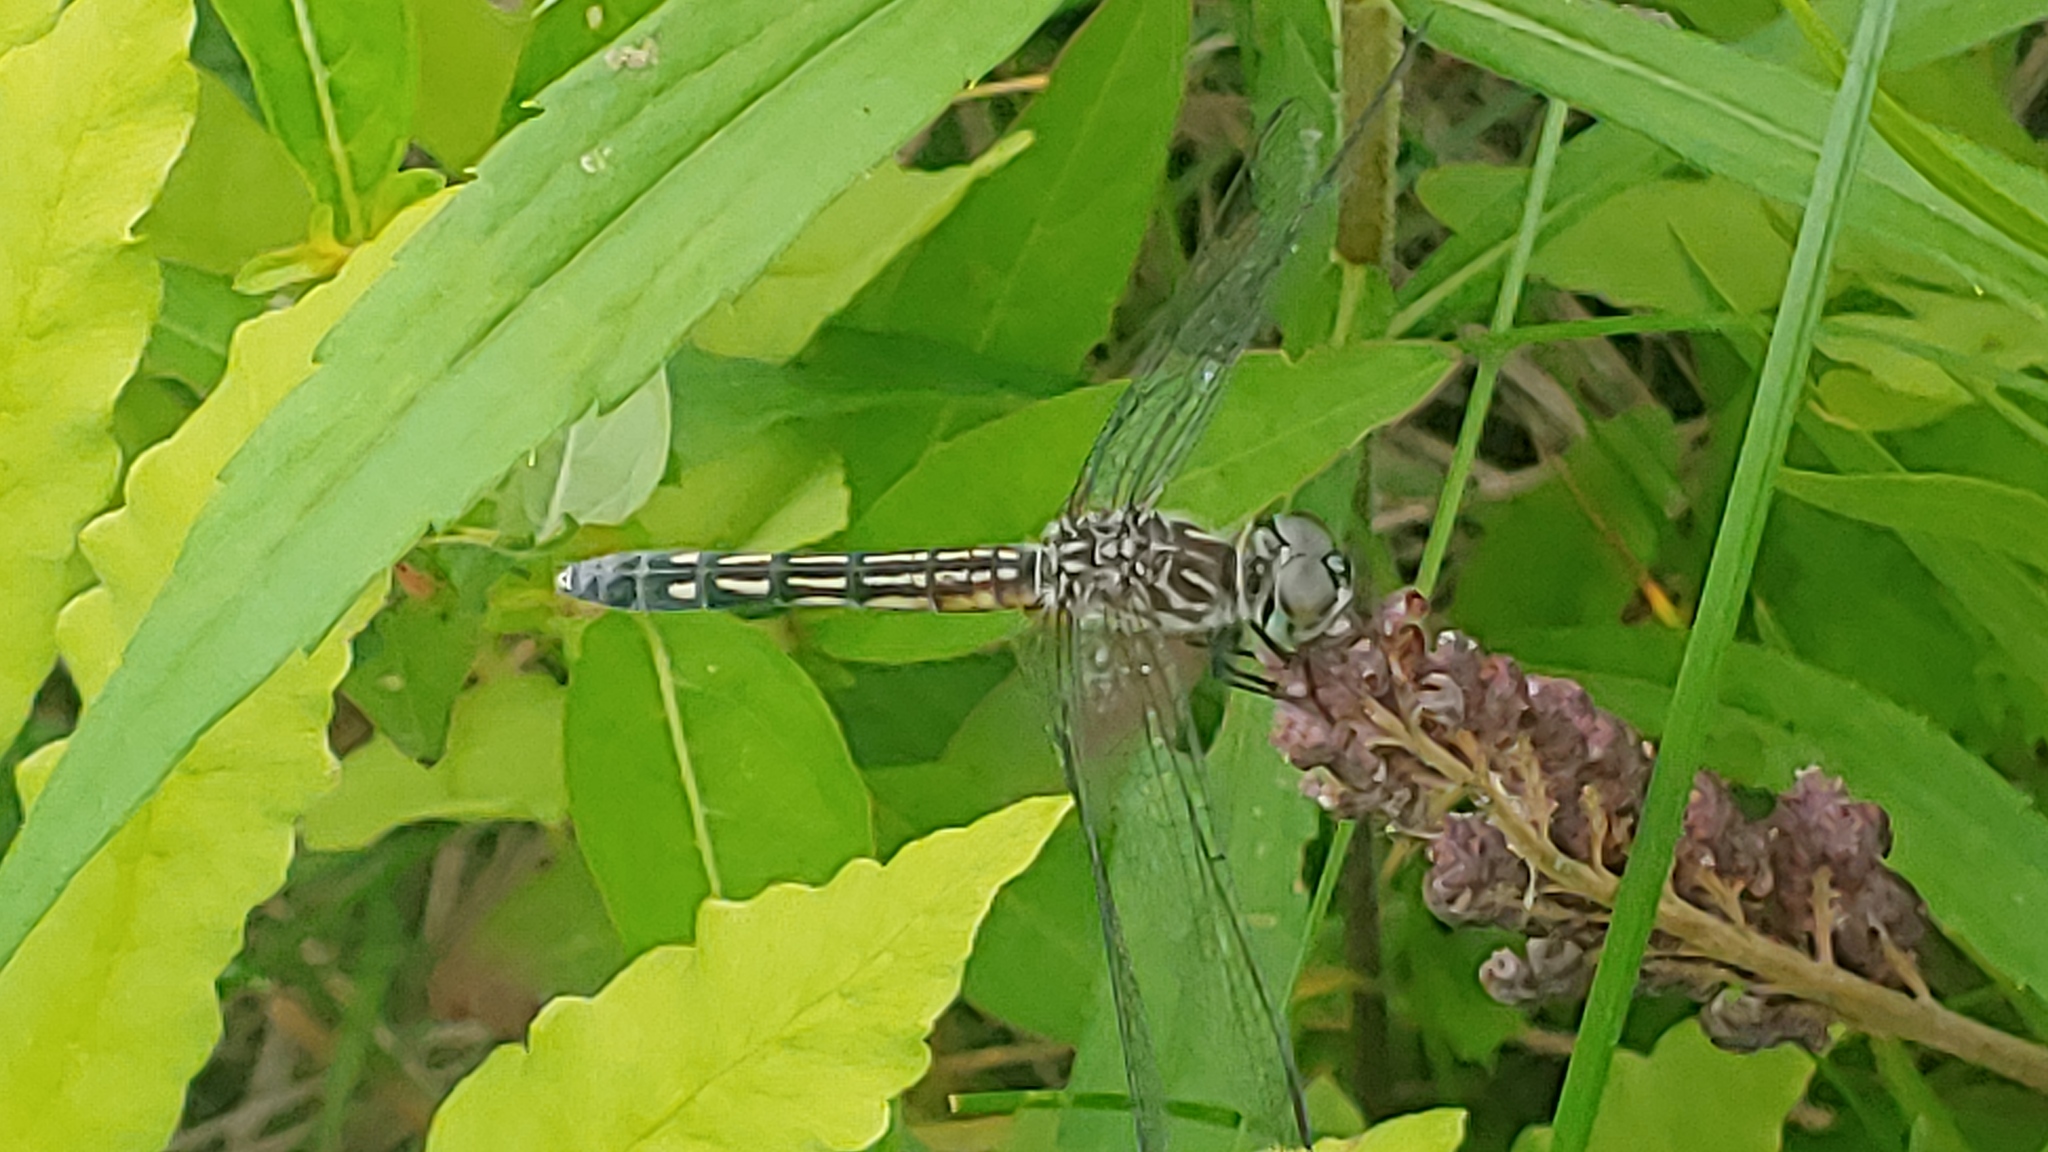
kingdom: Animalia
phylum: Arthropoda
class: Insecta
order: Odonata
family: Libellulidae
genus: Pachydiplax
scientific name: Pachydiplax longipennis
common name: Blue dasher
